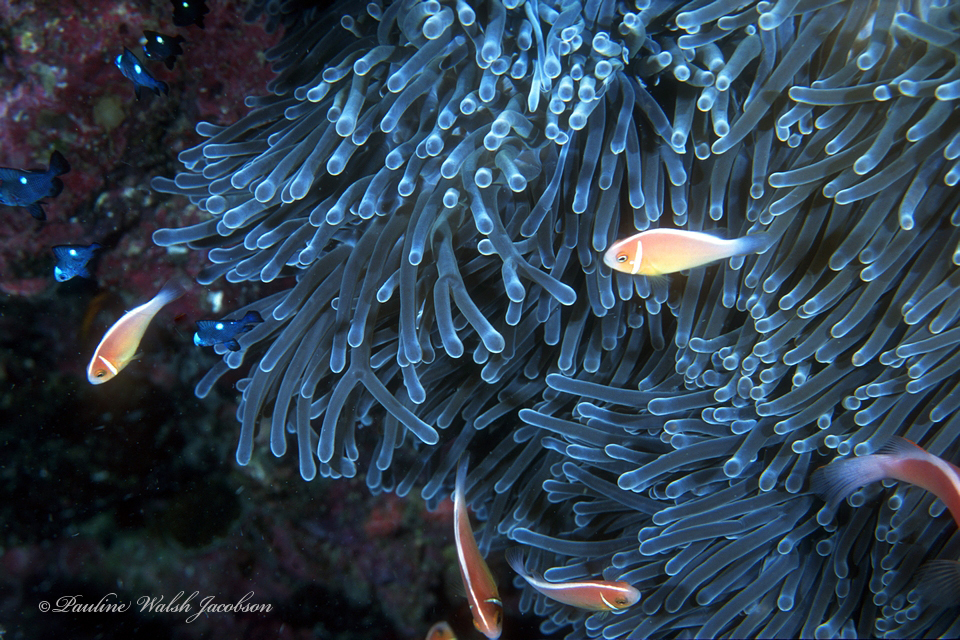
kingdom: Animalia
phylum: Chordata
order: Perciformes
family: Pomacentridae
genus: Amphiprion
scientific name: Amphiprion perideraion
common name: Pink anemonefish
